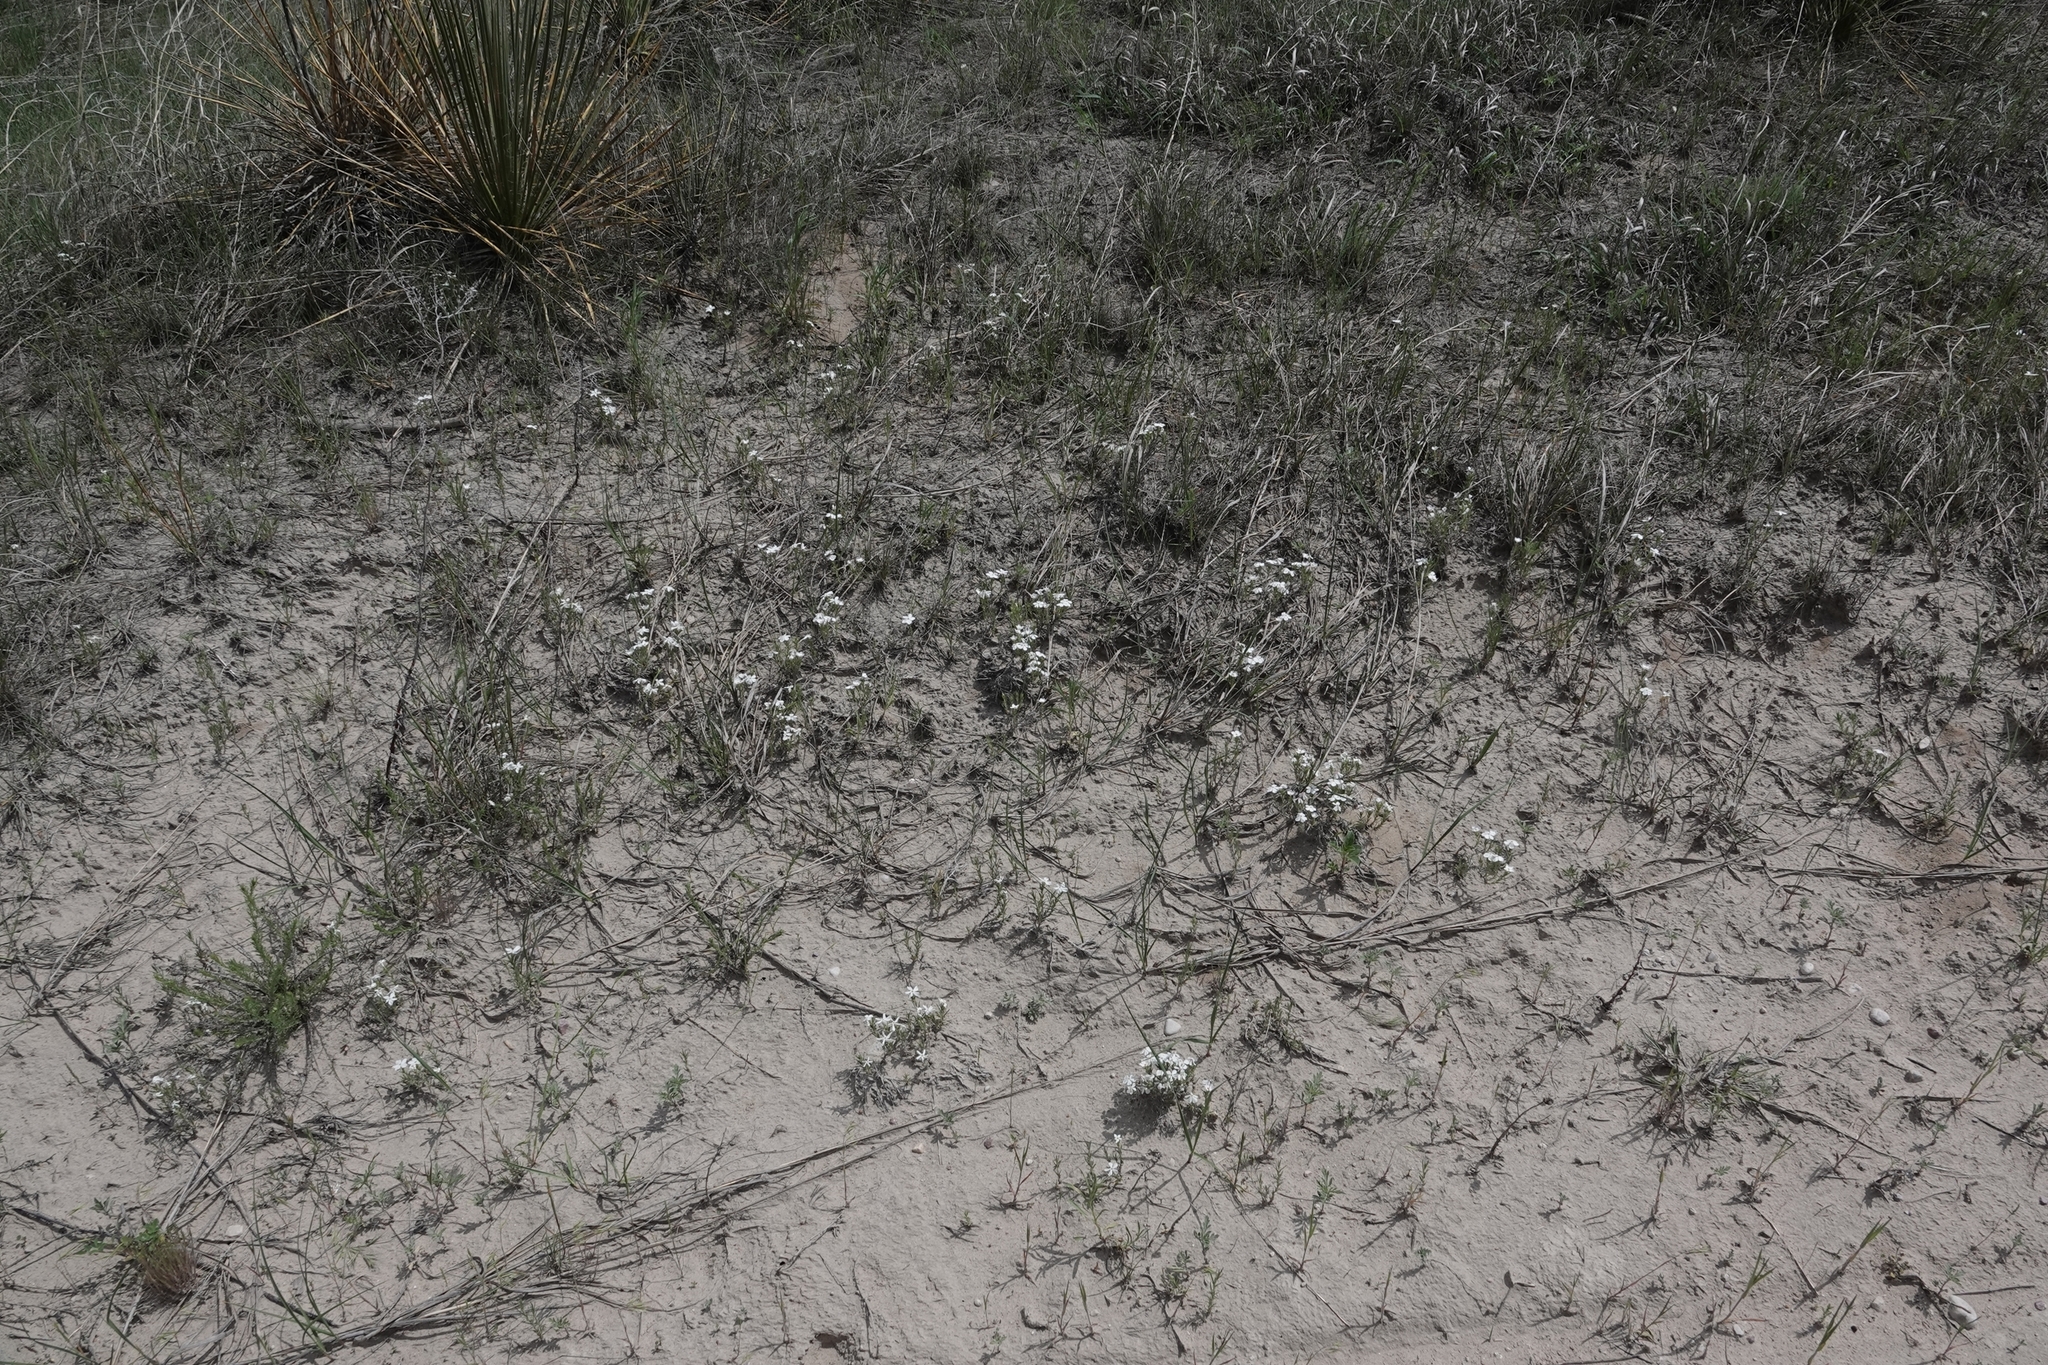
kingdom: Plantae
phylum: Tracheophyta
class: Magnoliopsida
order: Ericales
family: Polemoniaceae
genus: Phlox
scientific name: Phlox andicola
